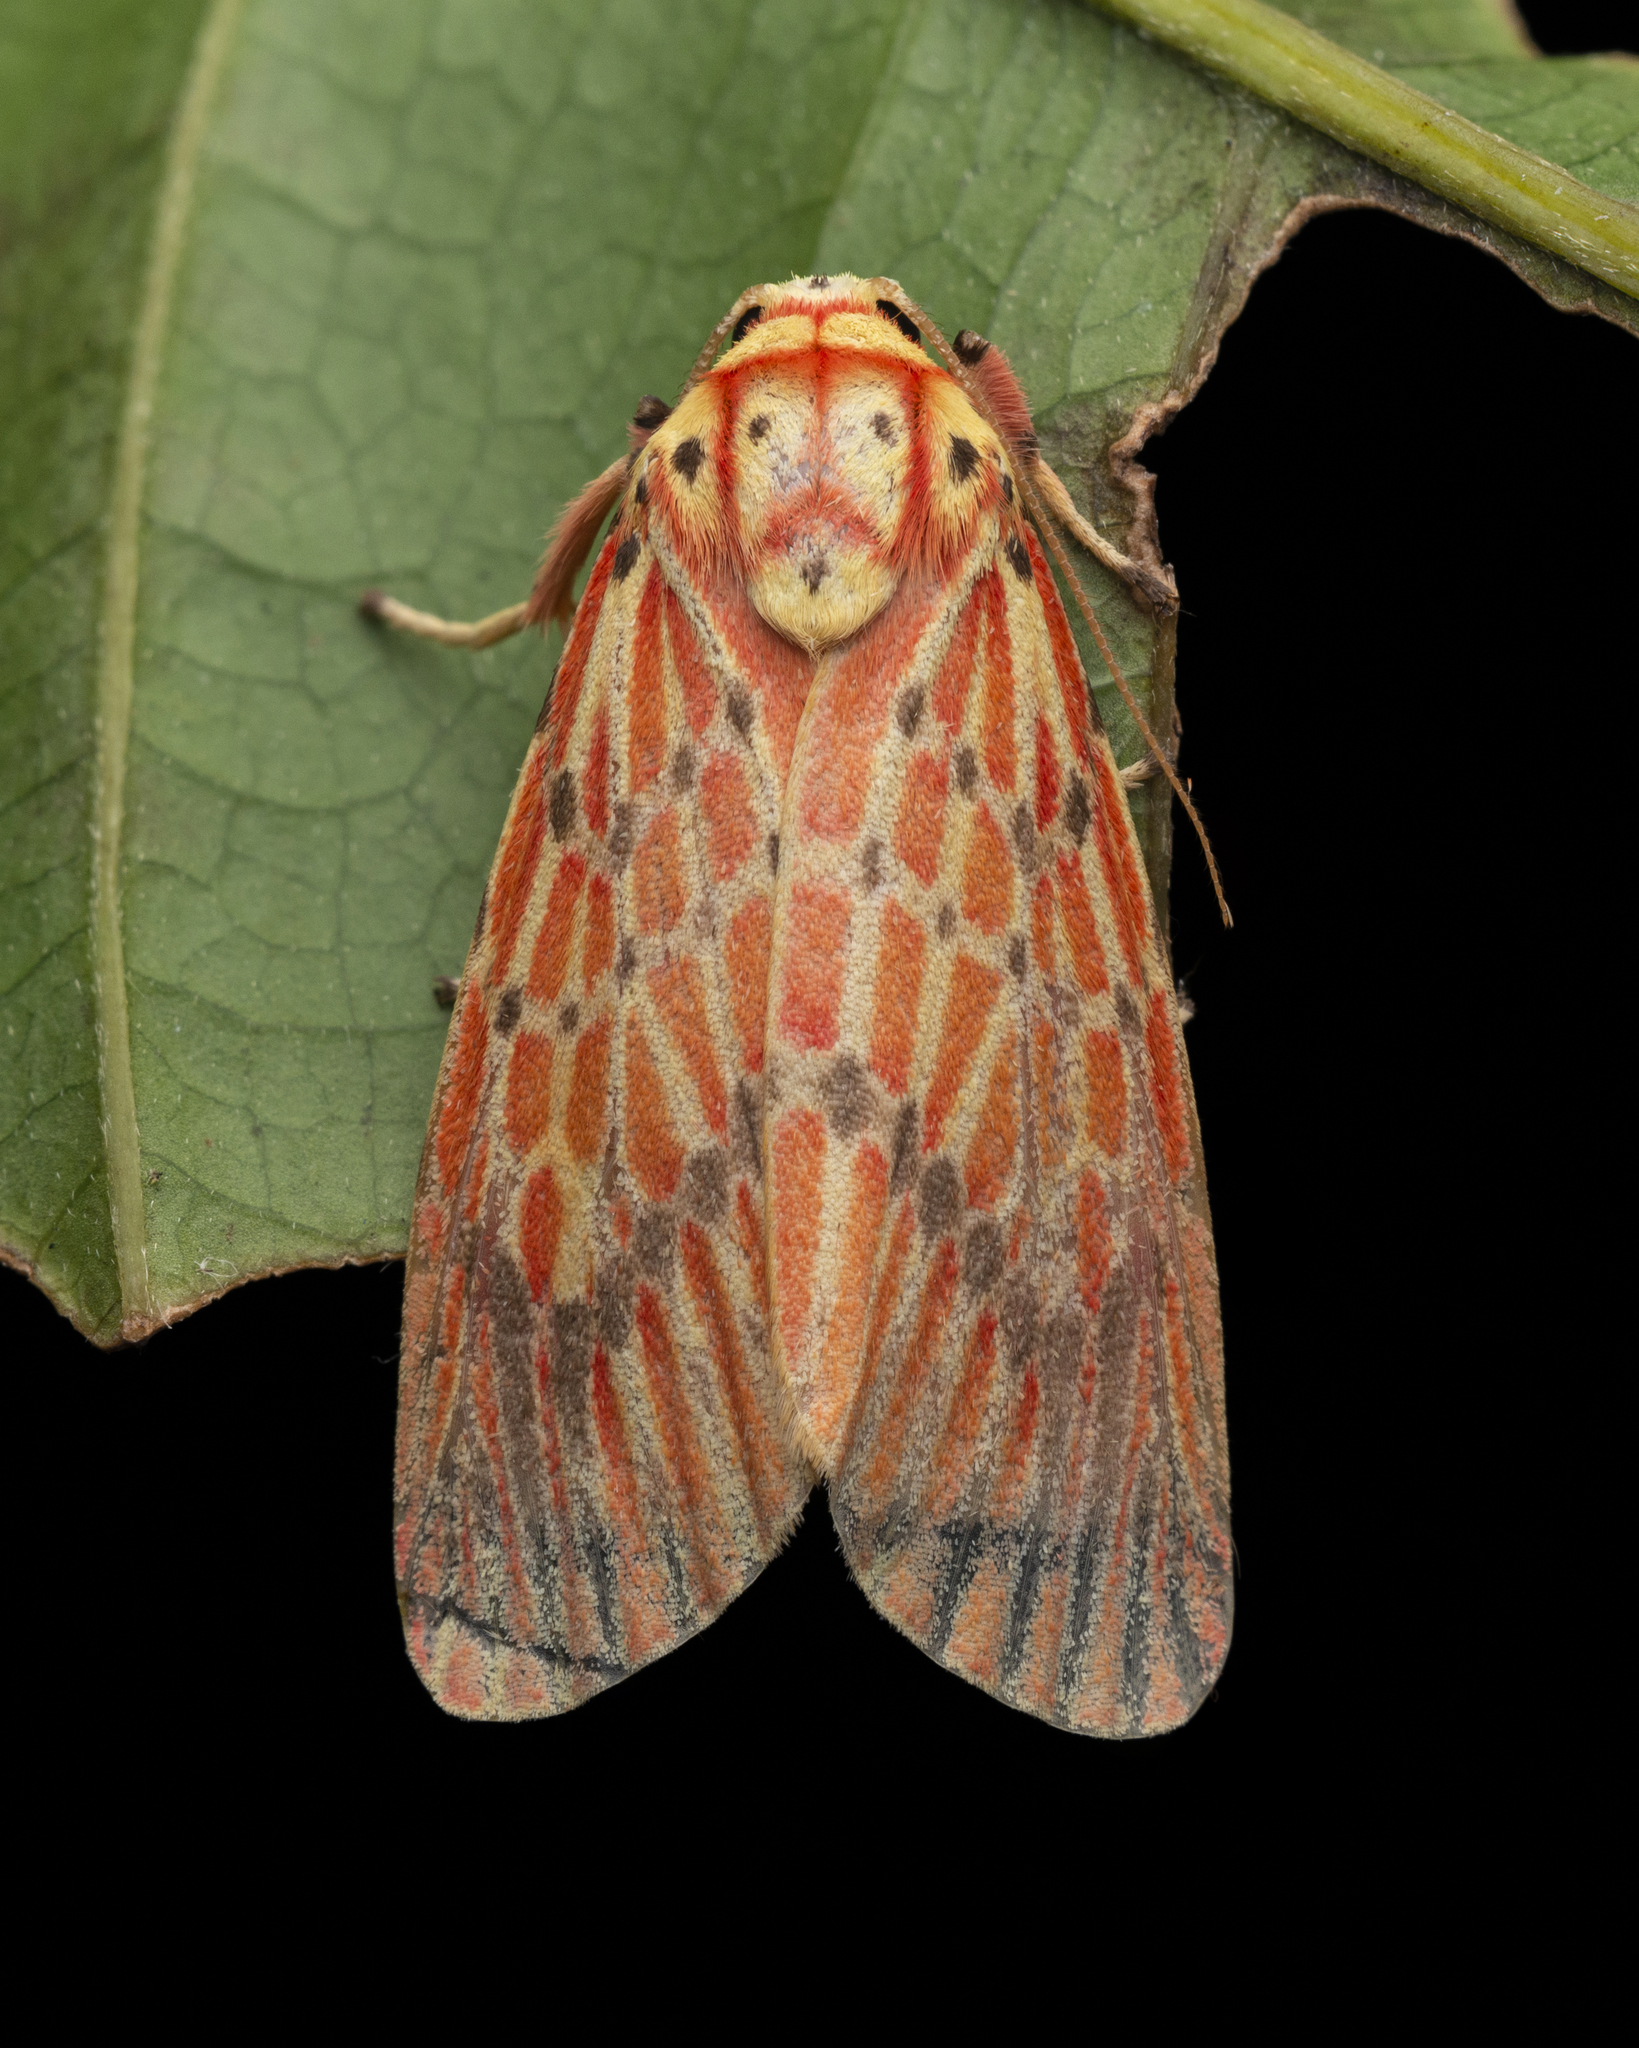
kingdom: Animalia
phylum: Arthropoda
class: Insecta
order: Lepidoptera
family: Erebidae
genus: Barsine
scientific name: Barsine striata
